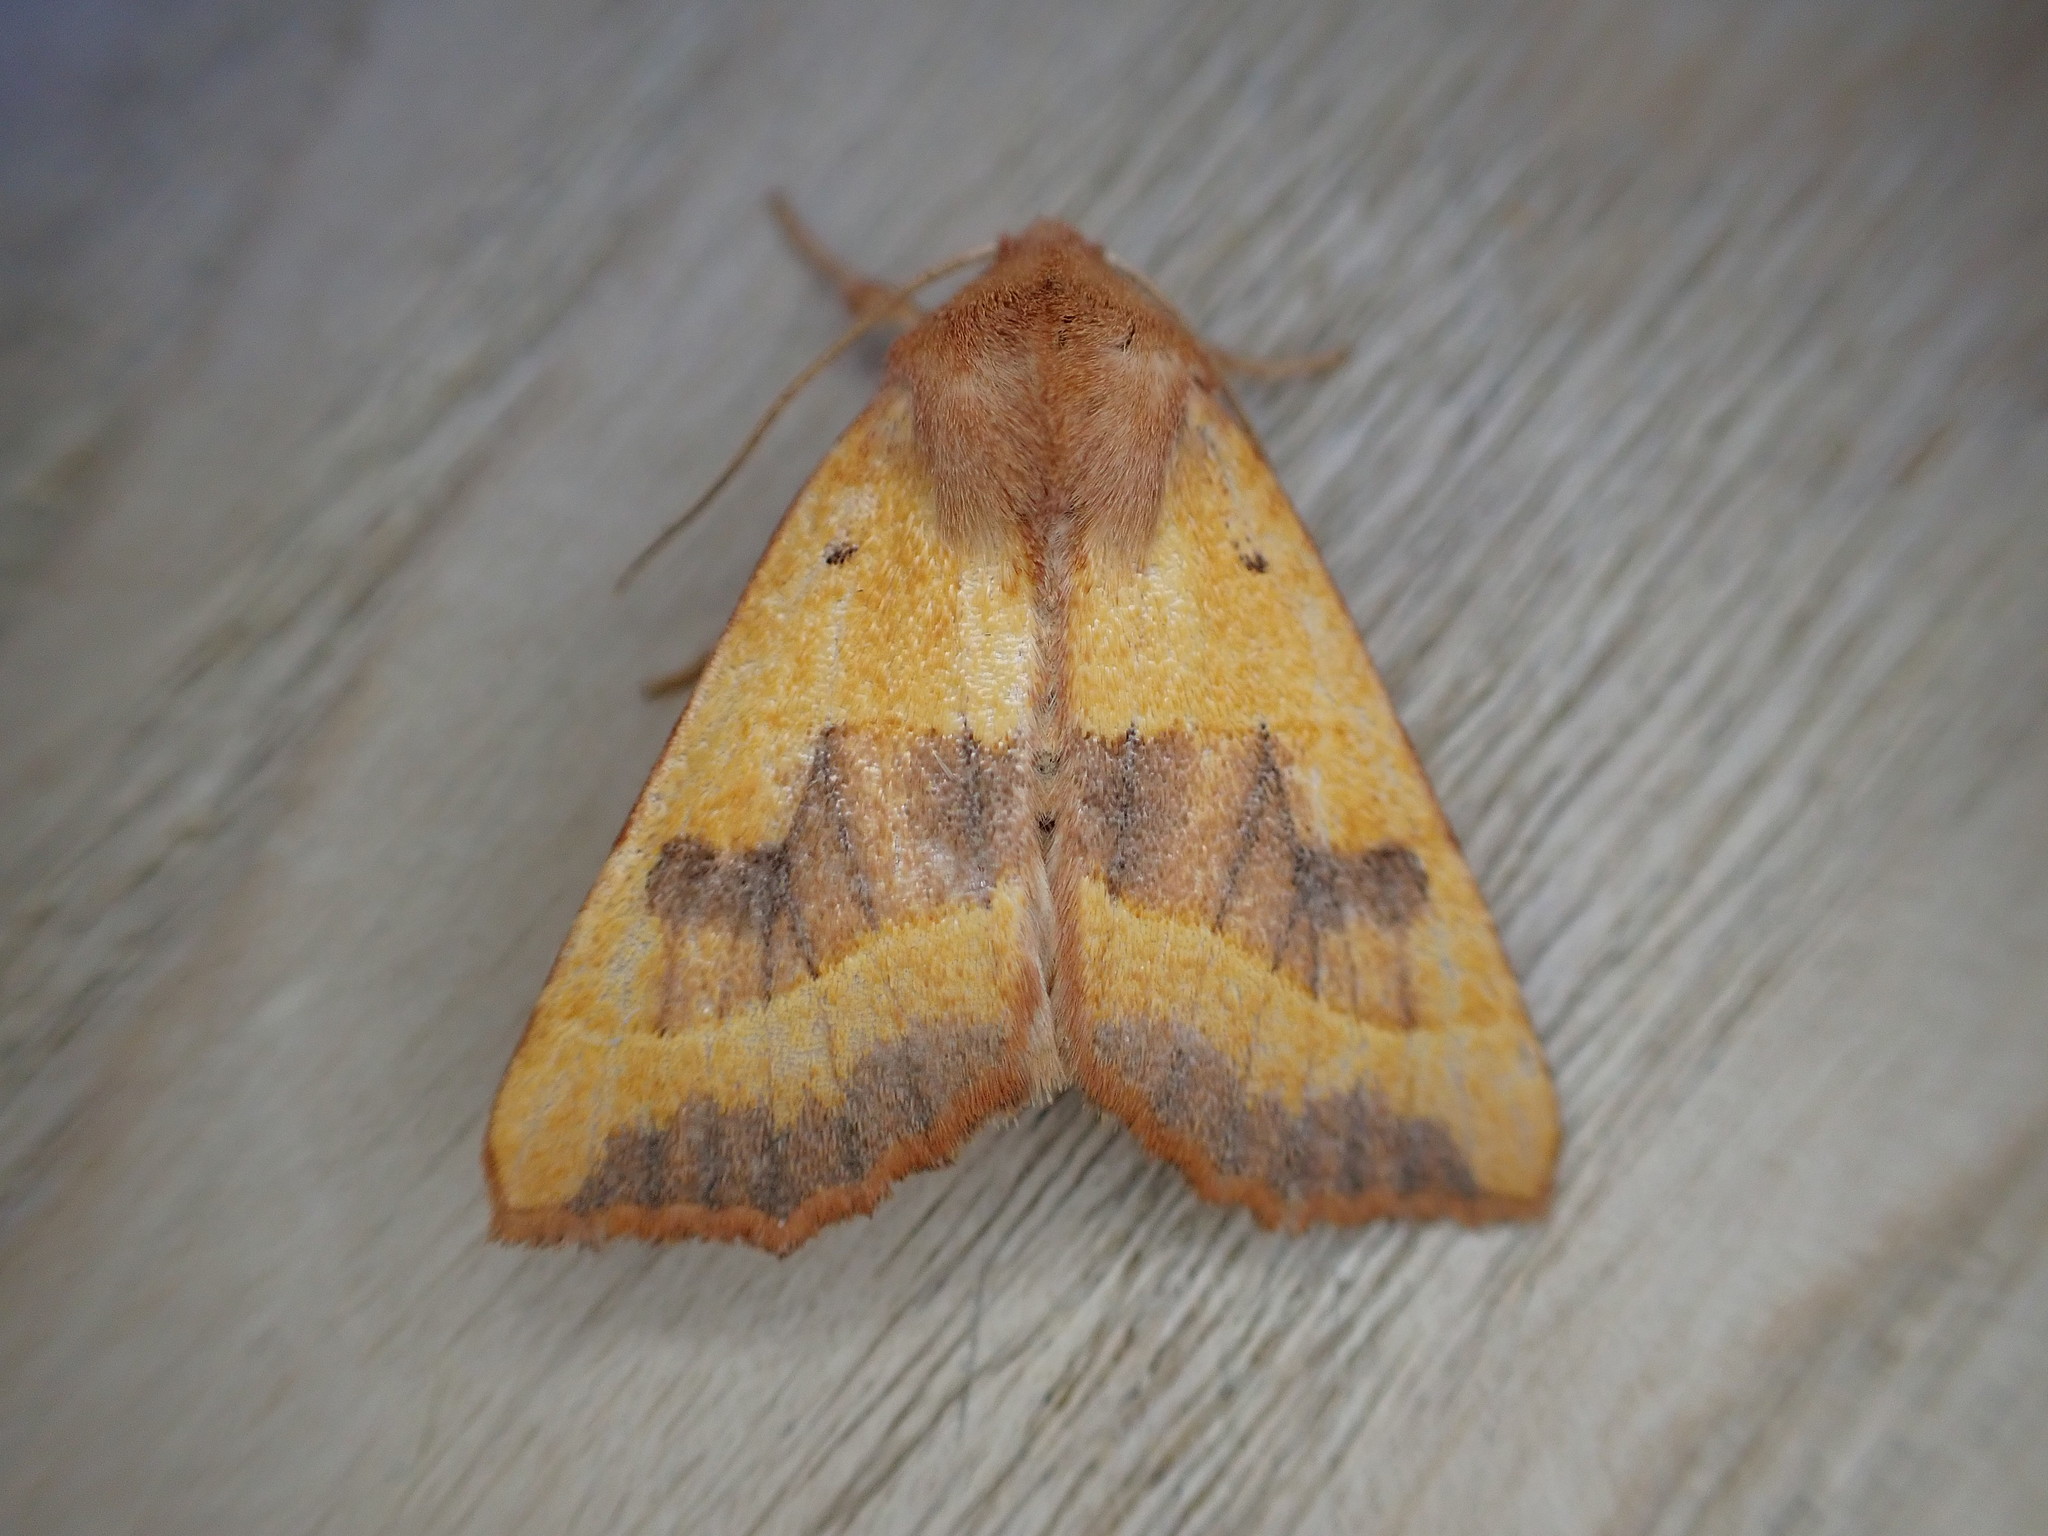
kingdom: Animalia
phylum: Arthropoda
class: Insecta
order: Lepidoptera
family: Noctuidae
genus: Atethmia
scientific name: Atethmia centrago
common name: Centre-barred sallow
